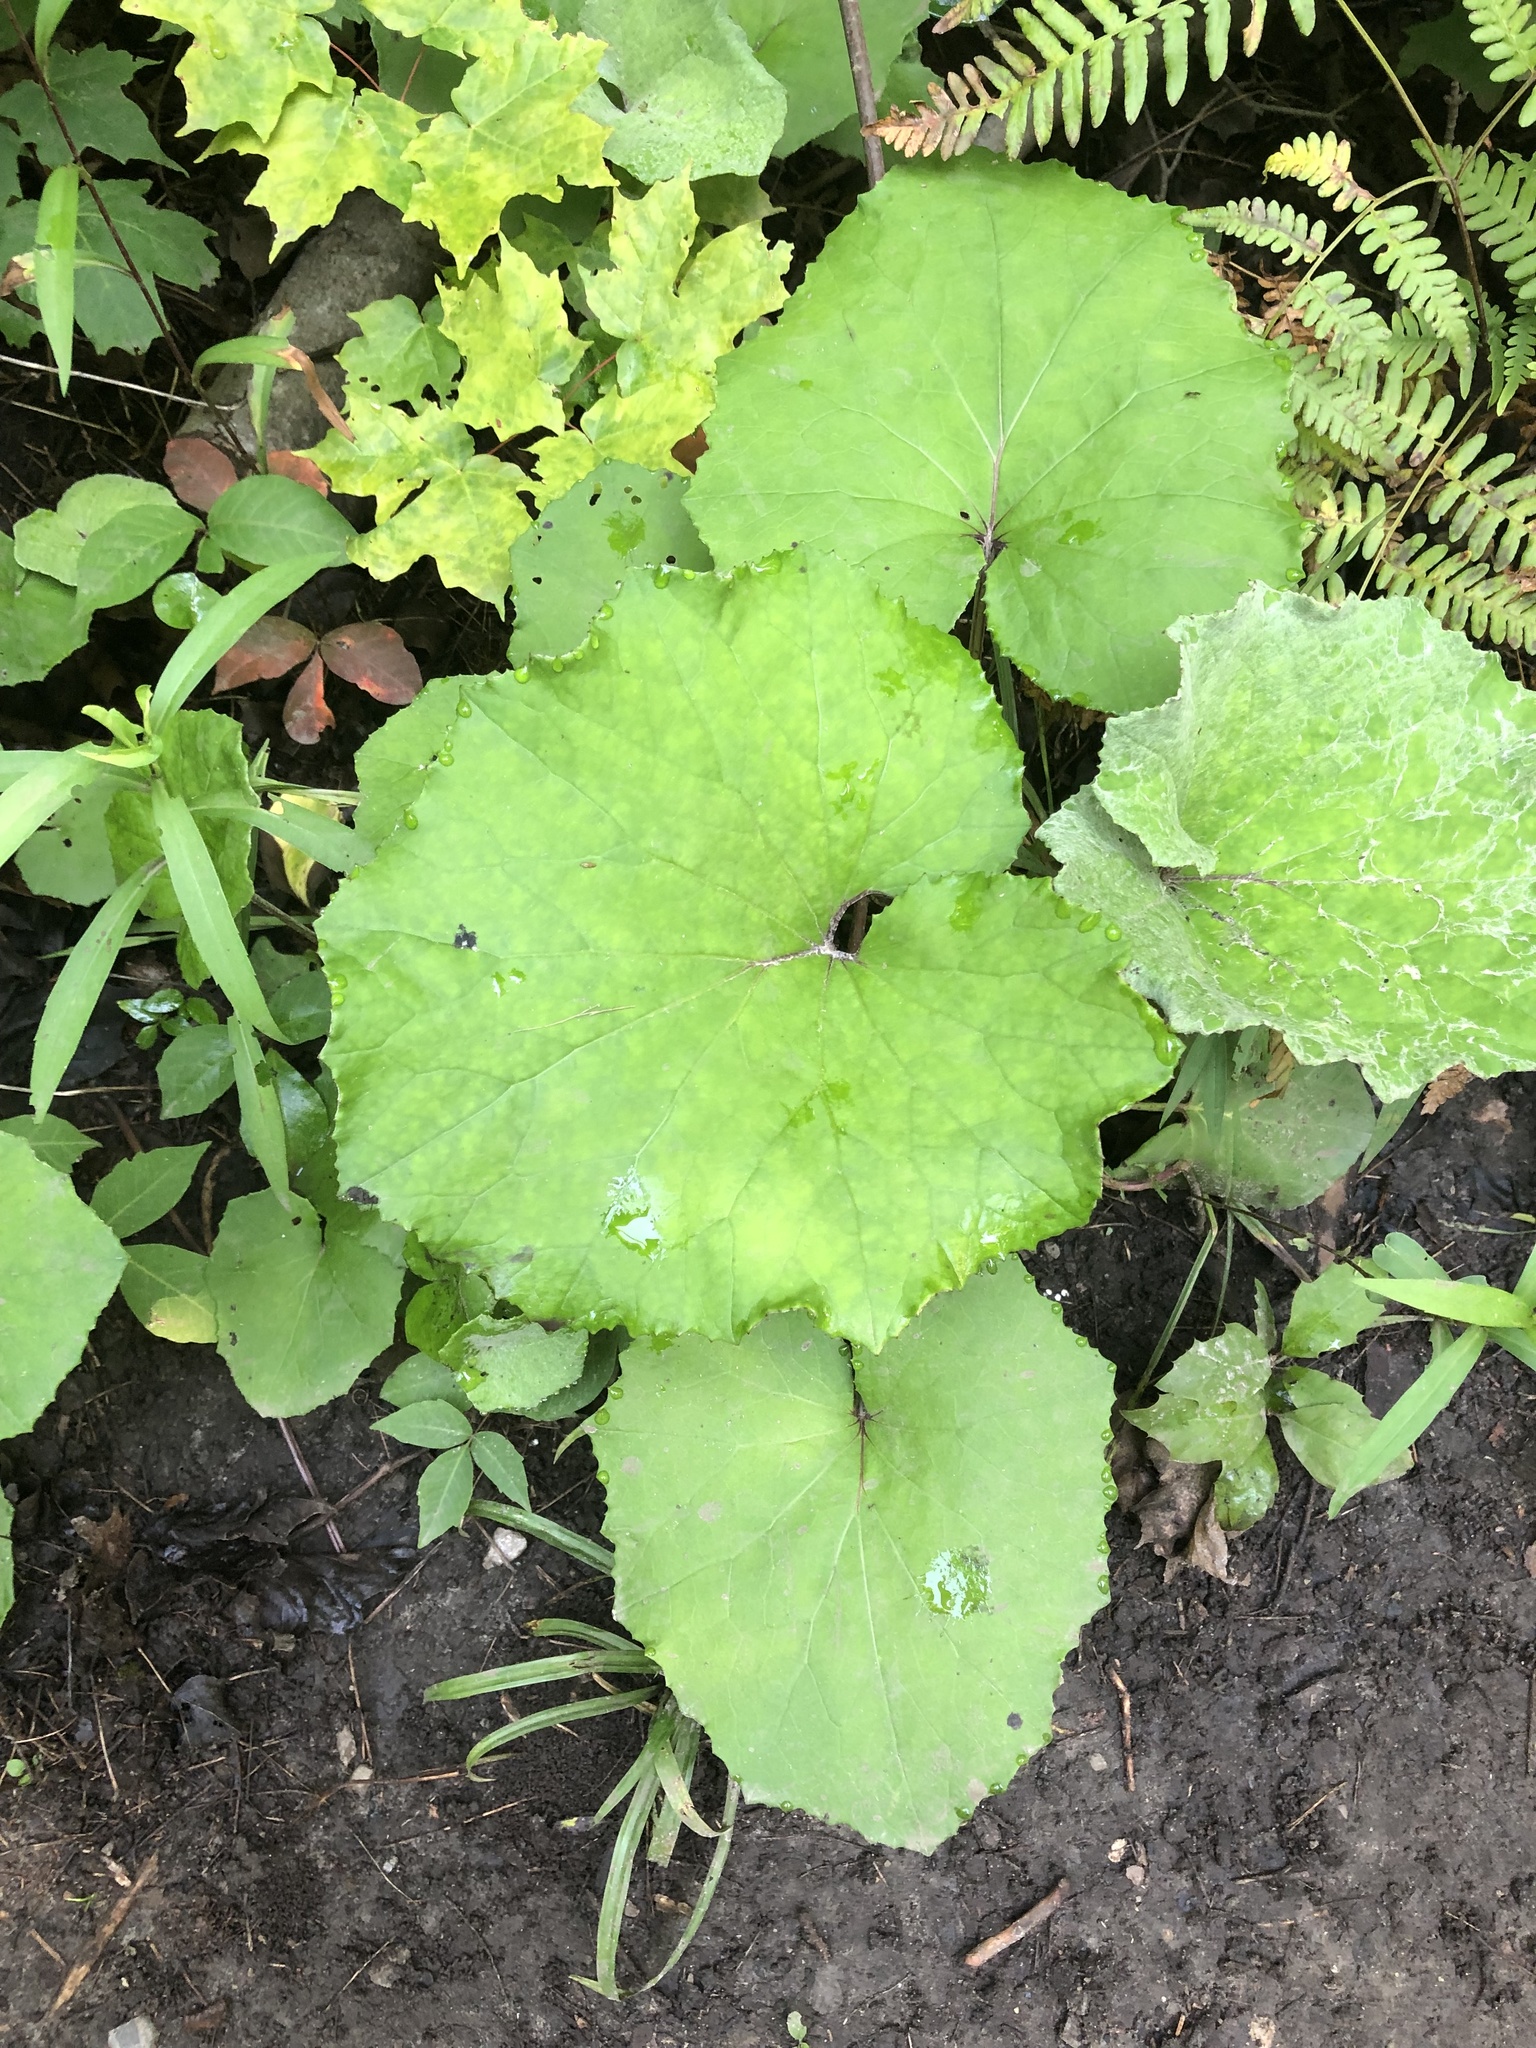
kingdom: Plantae
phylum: Tracheophyta
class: Magnoliopsida
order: Asterales
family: Asteraceae
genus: Tussilago
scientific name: Tussilago farfara
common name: Coltsfoot
